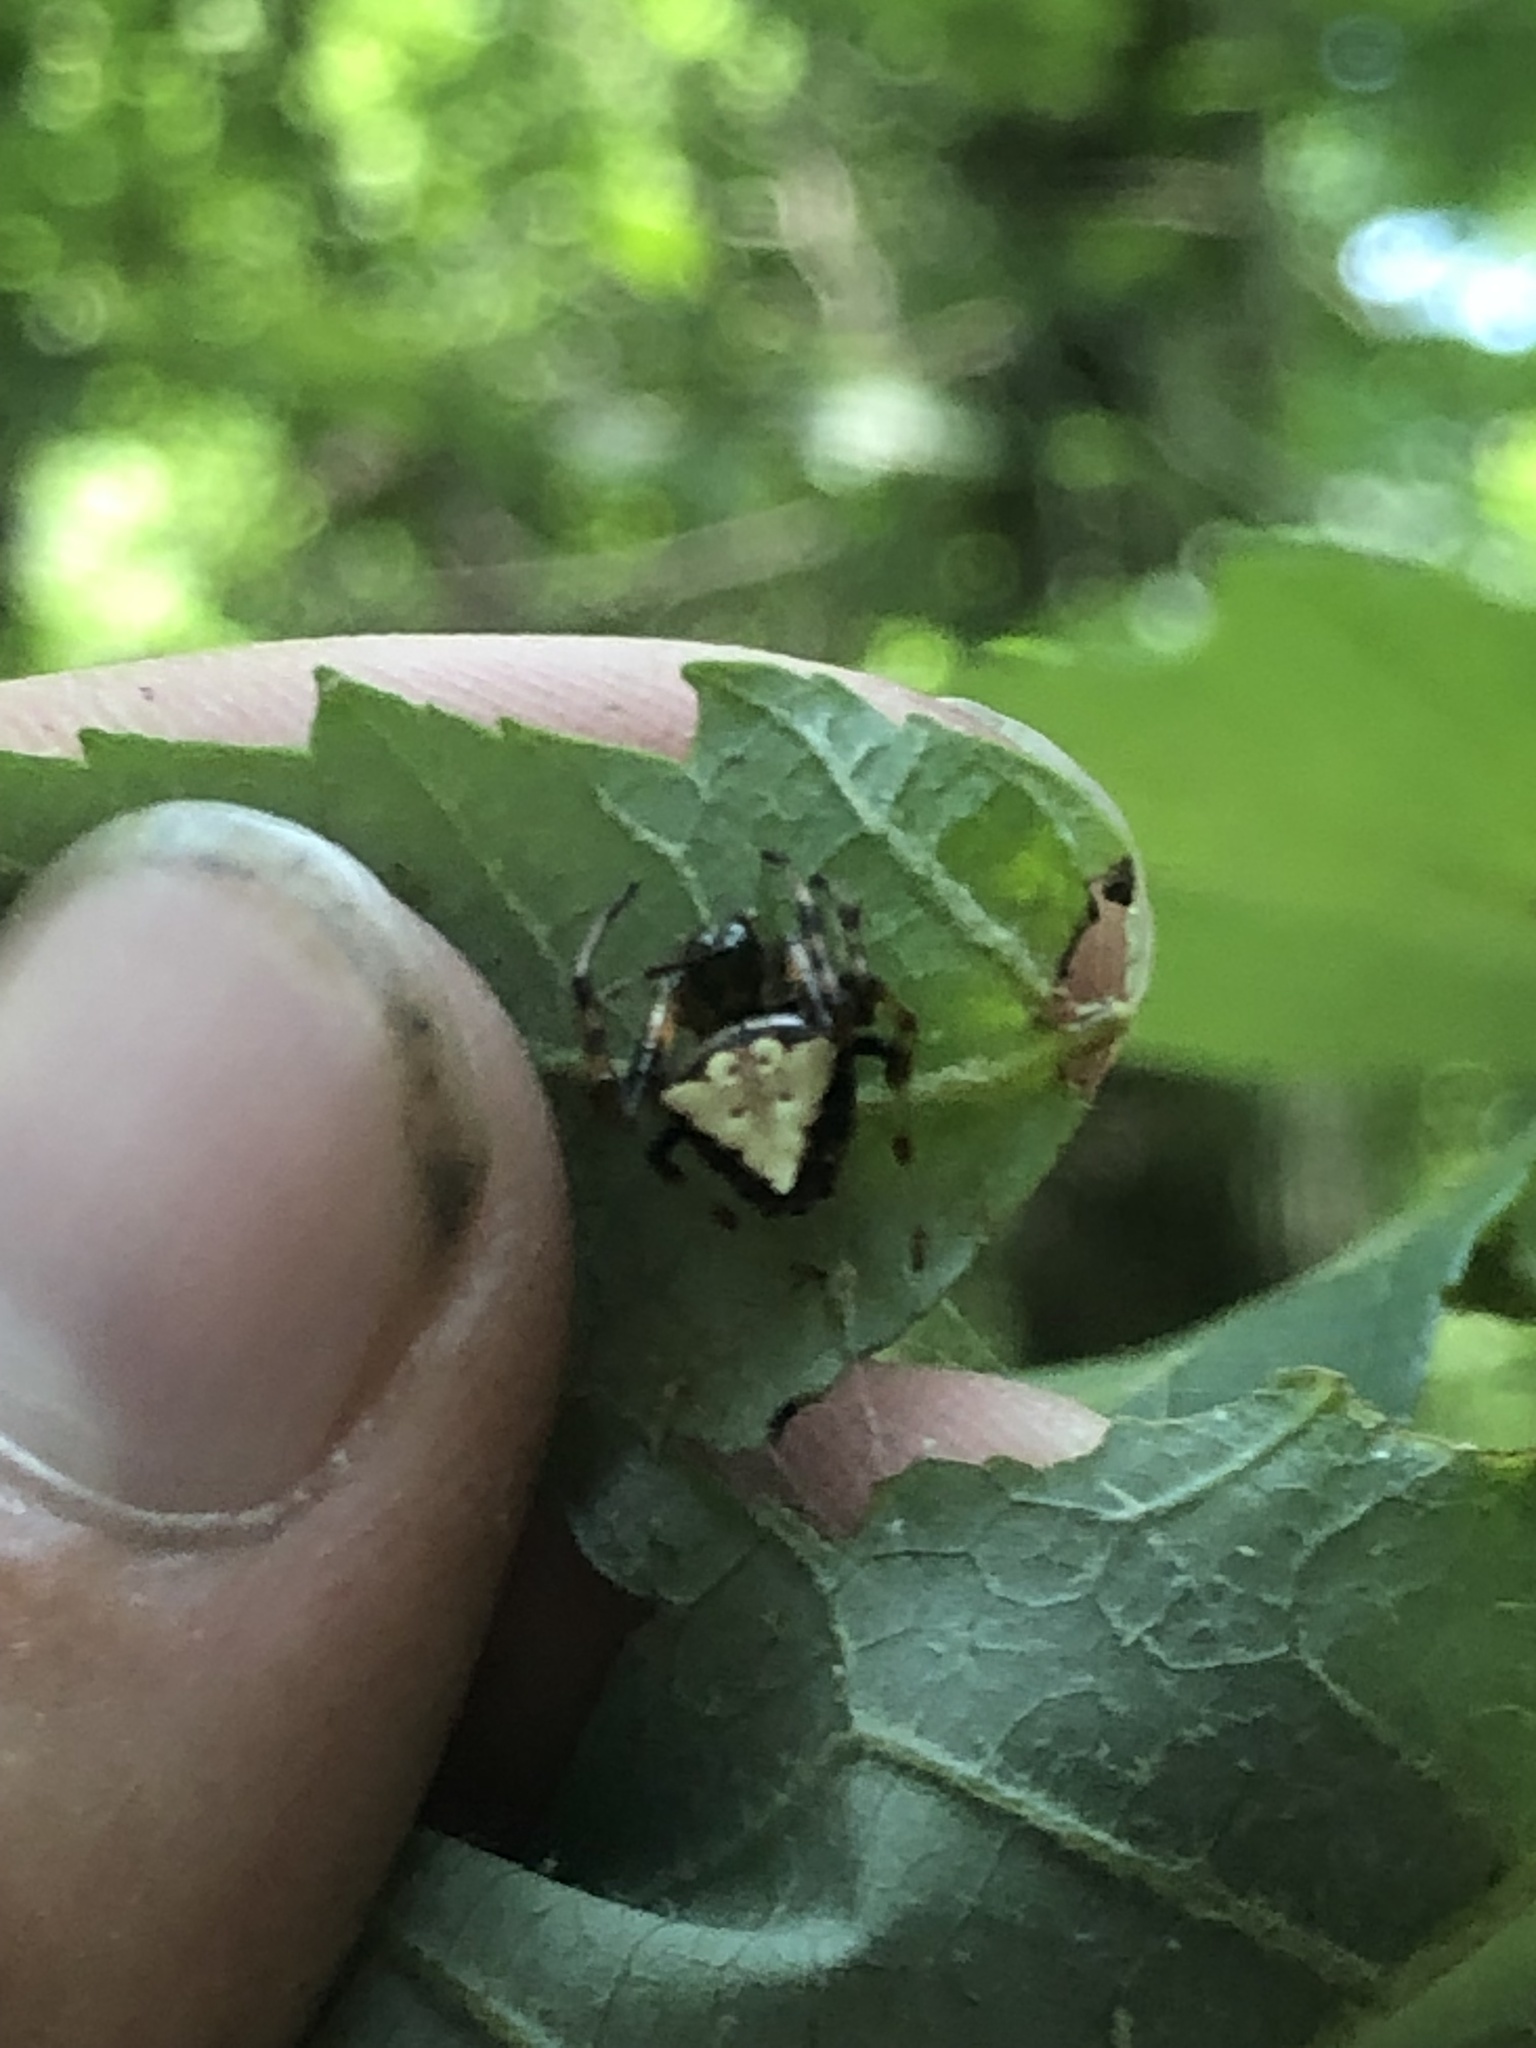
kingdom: Animalia
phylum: Arthropoda
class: Arachnida
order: Araneae
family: Araneidae
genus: Verrucosa
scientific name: Verrucosa arenata
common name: Orb weavers
